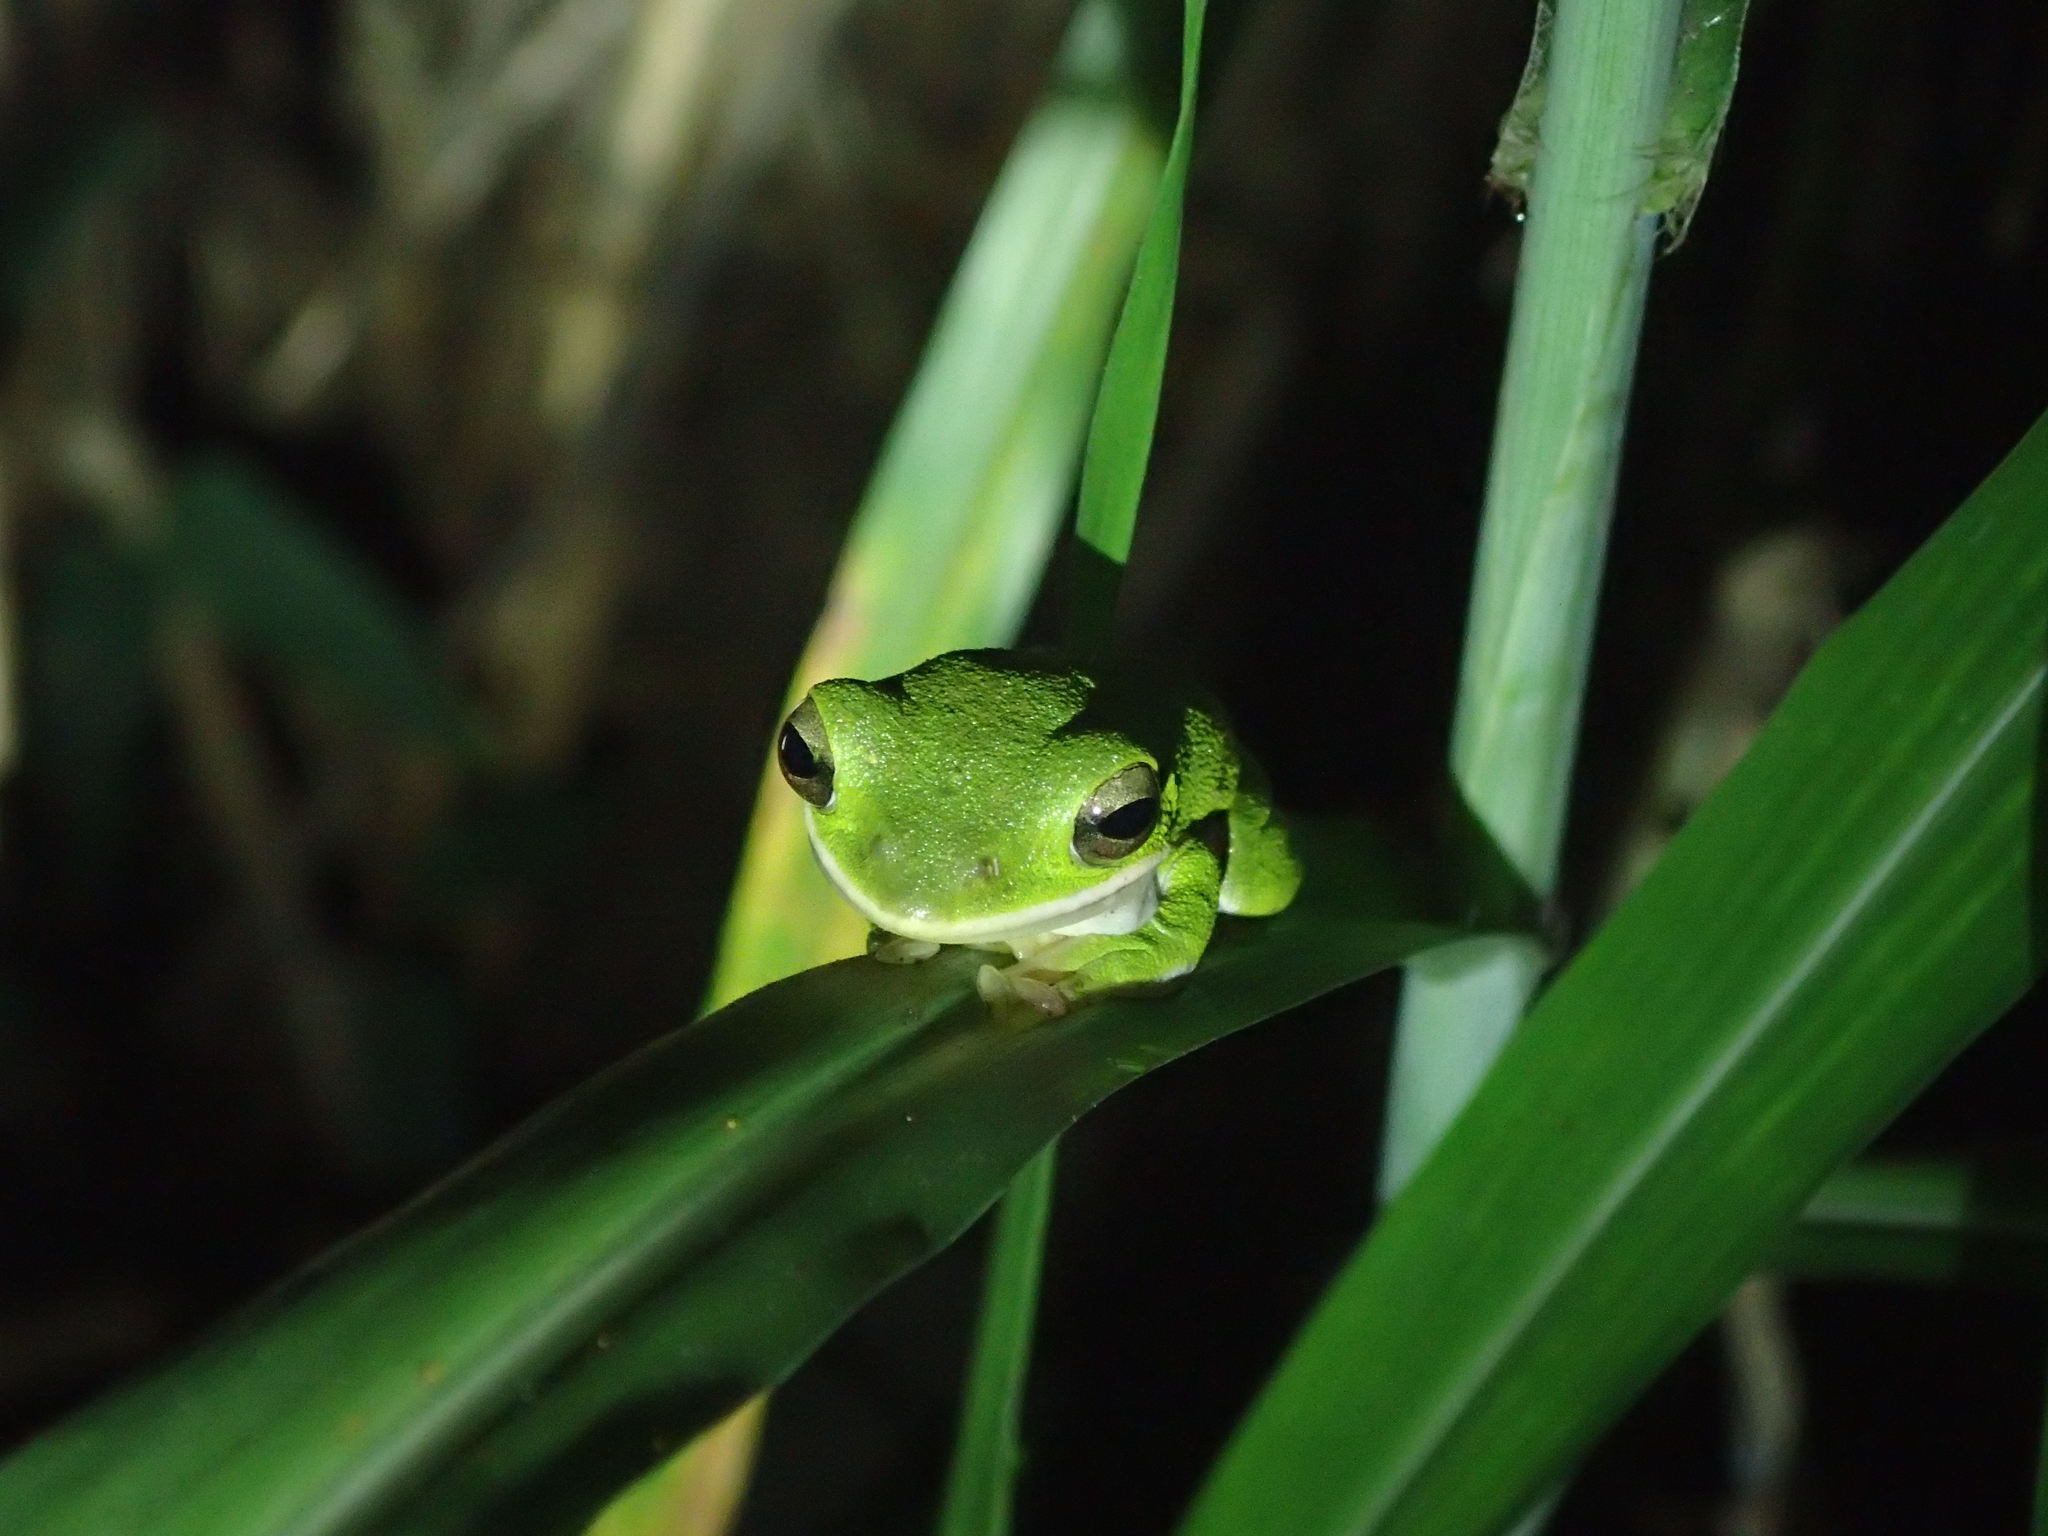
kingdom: Animalia
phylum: Chordata
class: Amphibia
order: Anura
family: Rhacophoridae
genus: Zhangixalus
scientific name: Zhangixalus arvalis
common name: Farmland green treefrog
